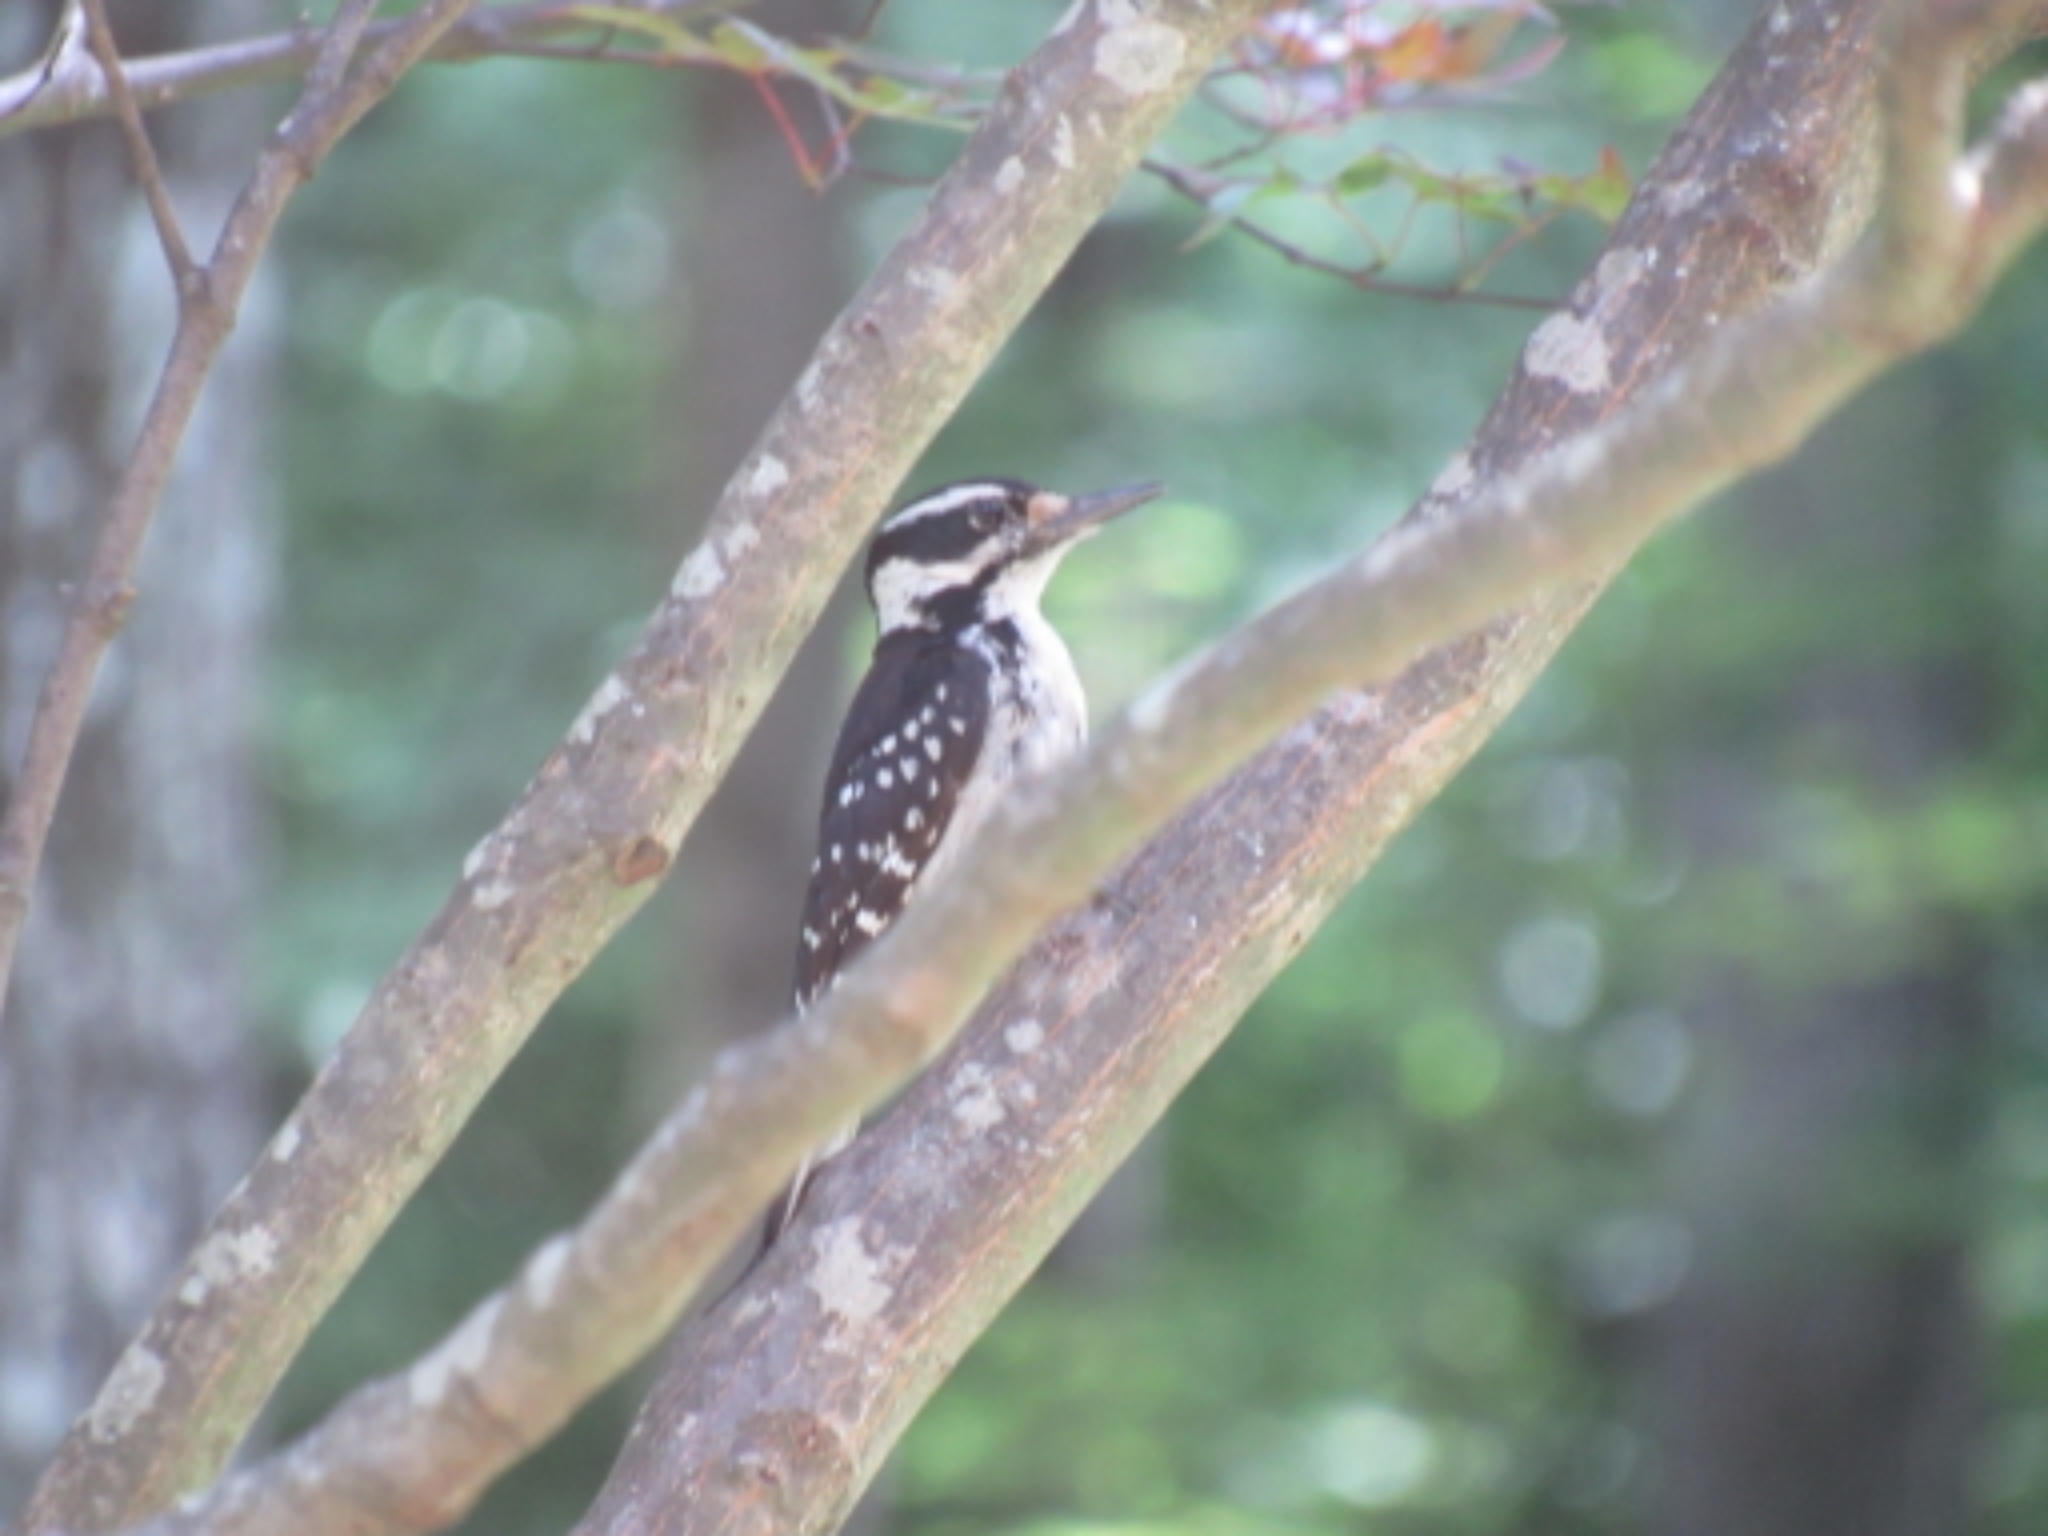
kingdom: Animalia
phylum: Chordata
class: Aves
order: Piciformes
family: Picidae
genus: Leuconotopicus
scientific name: Leuconotopicus villosus
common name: Hairy woodpecker
